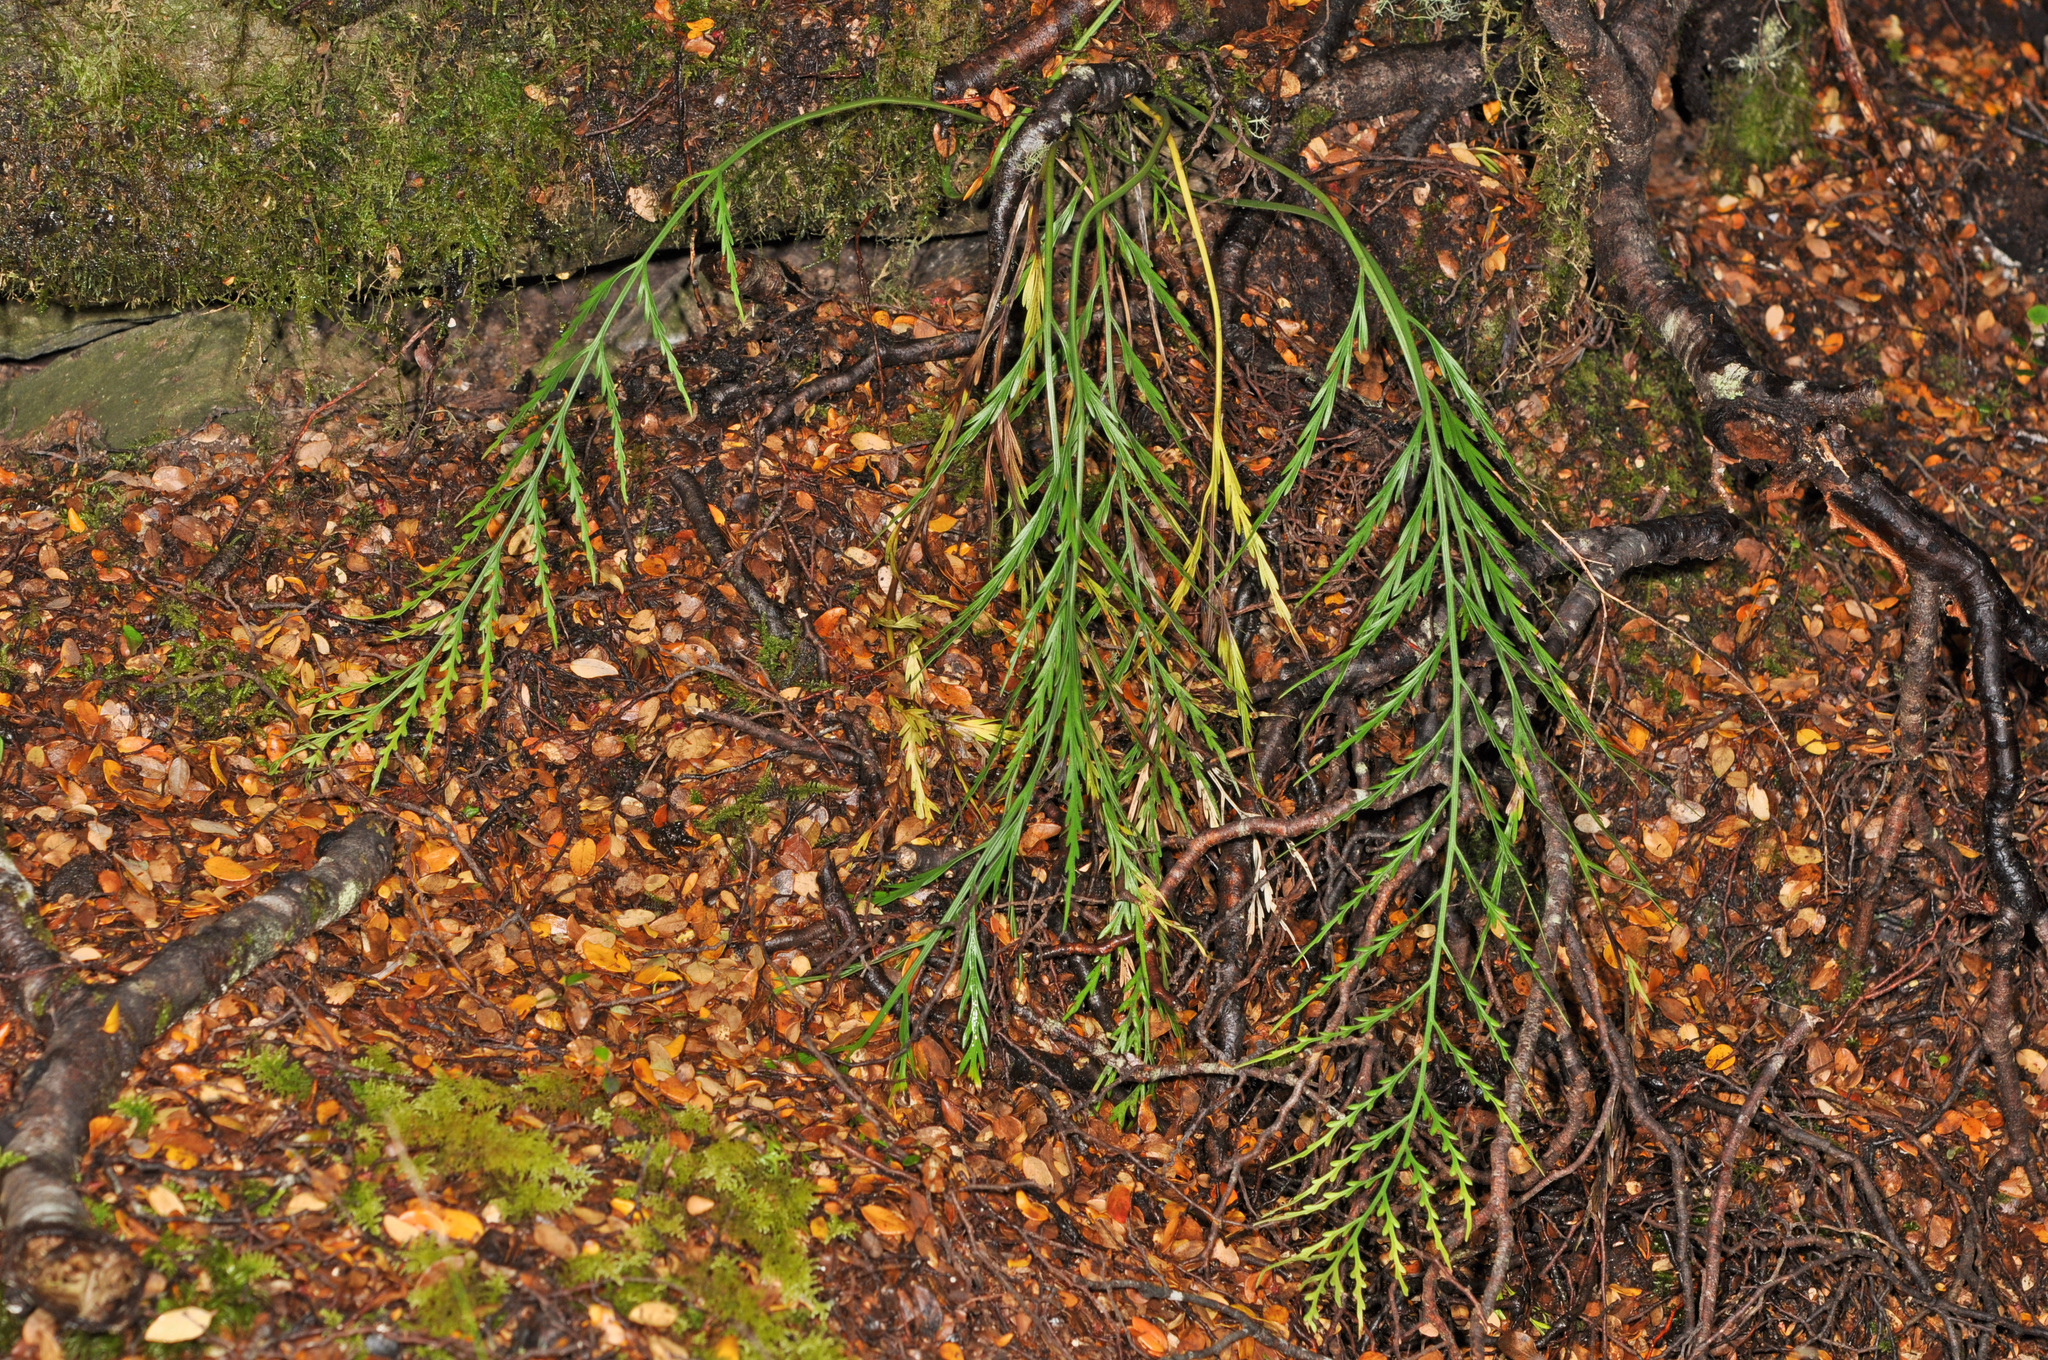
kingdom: Plantae
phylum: Tracheophyta
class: Polypodiopsida
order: Polypodiales
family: Aspleniaceae
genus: Asplenium
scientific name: Asplenium flaccidum
